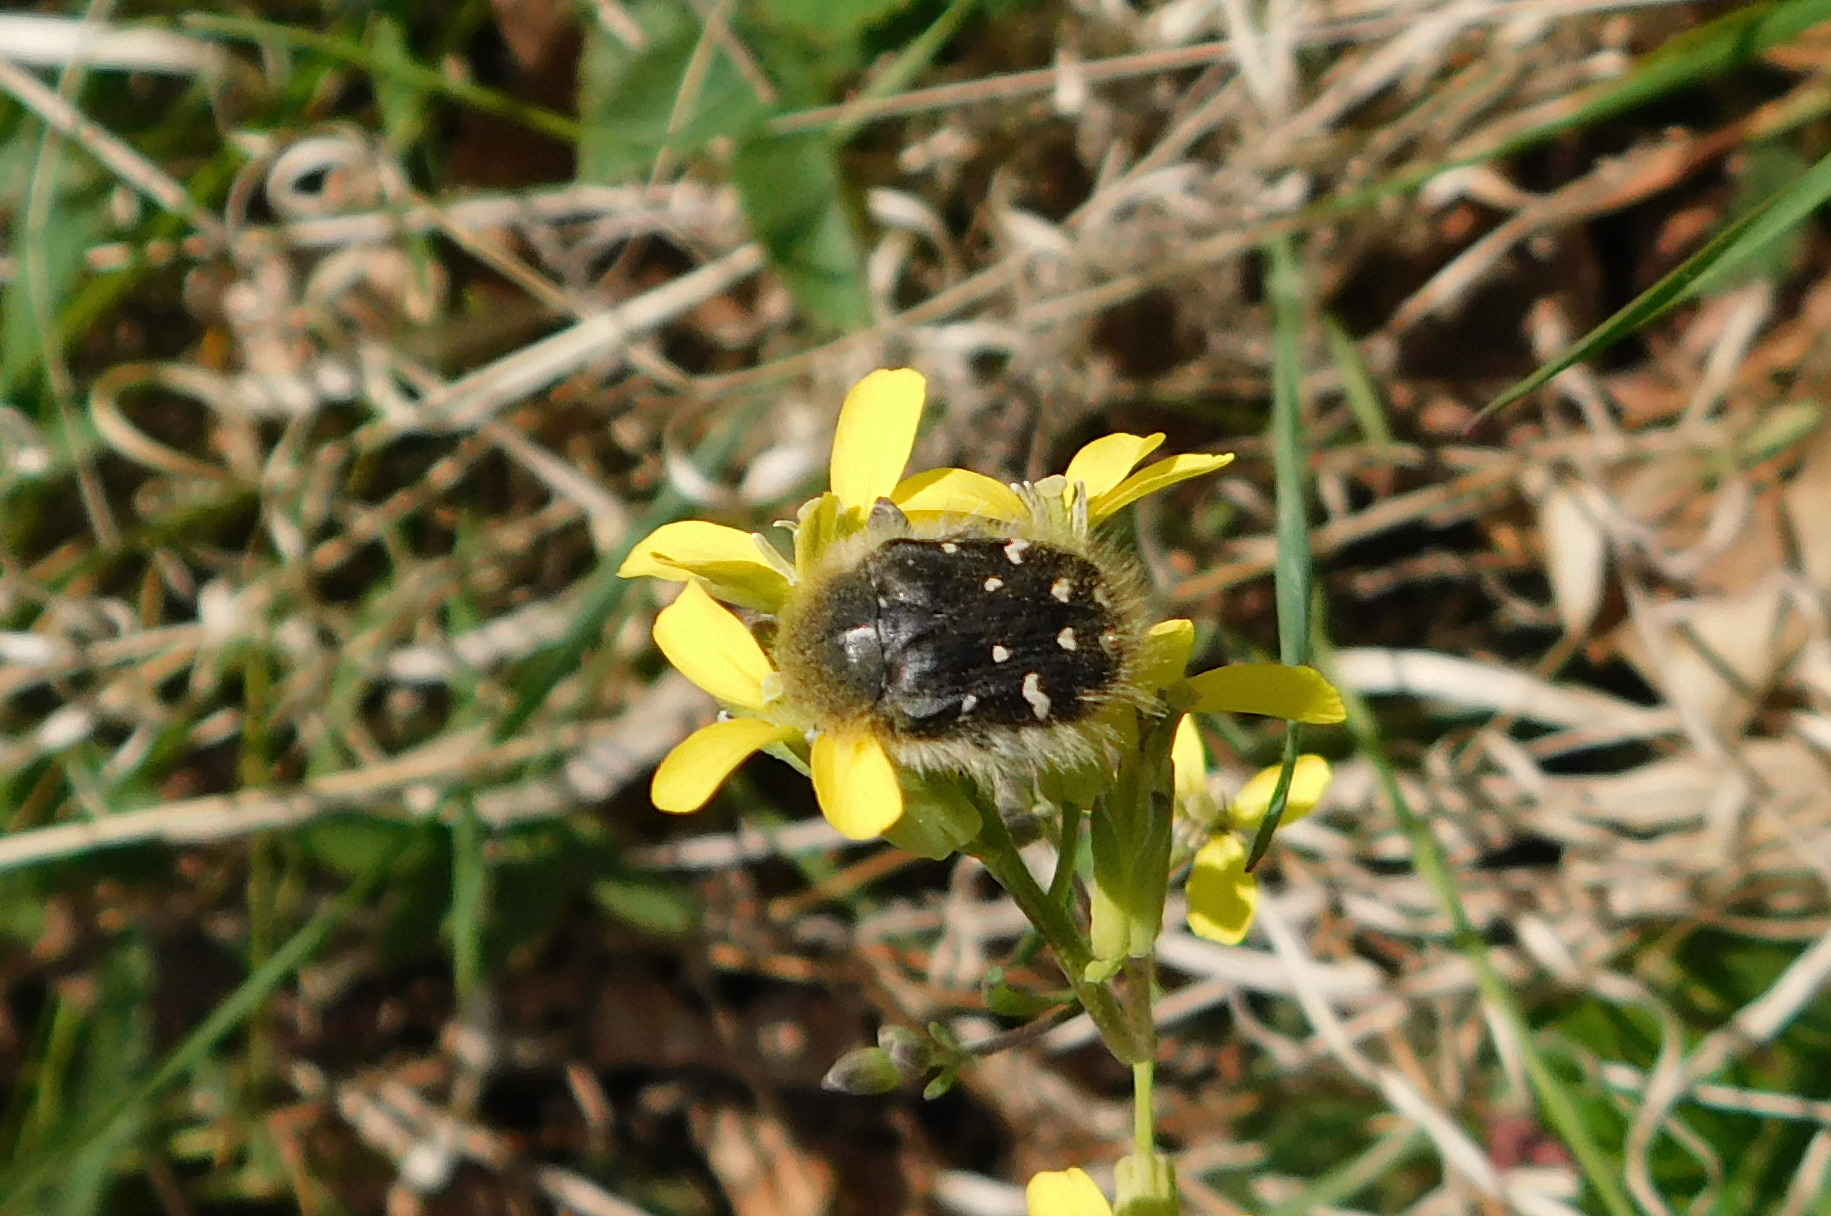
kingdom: Animalia
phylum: Arthropoda
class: Insecta
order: Coleoptera
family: Scarabaeidae
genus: Tropinota
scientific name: Tropinota hirta
